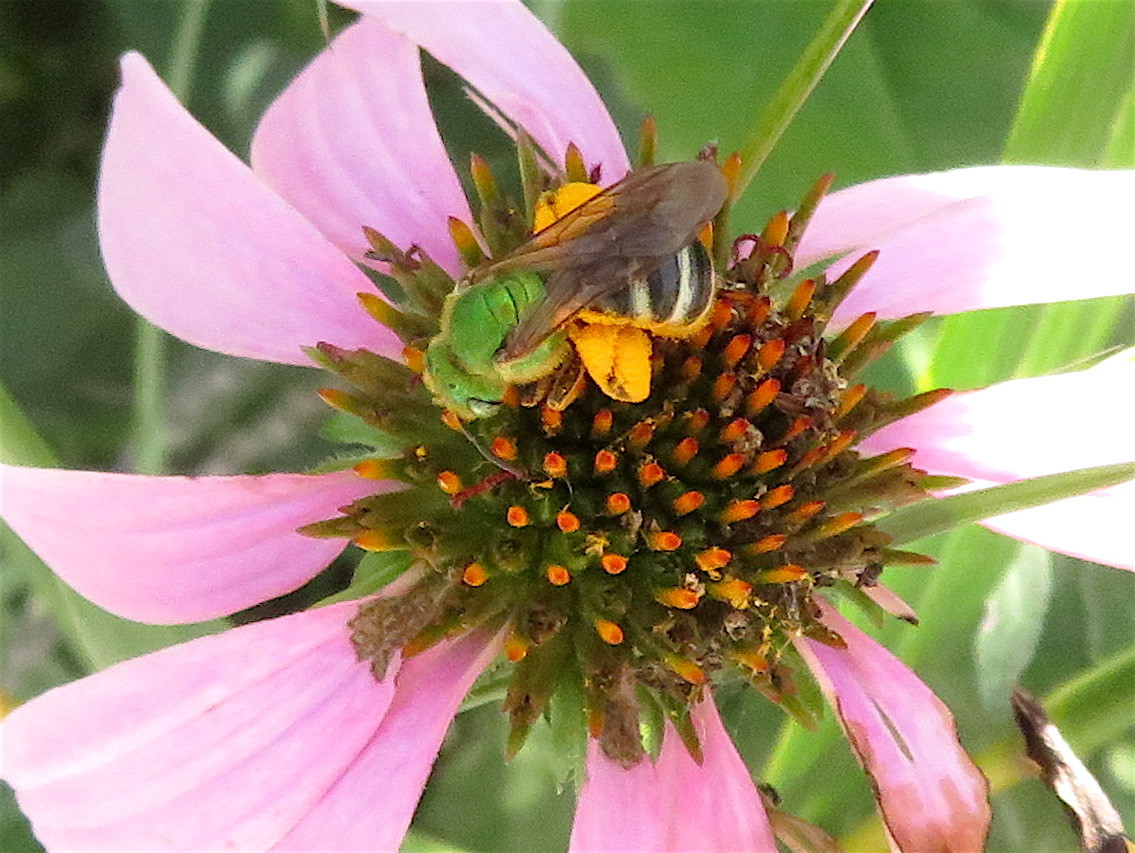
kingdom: Animalia
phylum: Arthropoda
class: Insecta
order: Hymenoptera
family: Halictidae
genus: Agapostemon
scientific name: Agapostemon virescens
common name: Bicolored striped sweat bee
